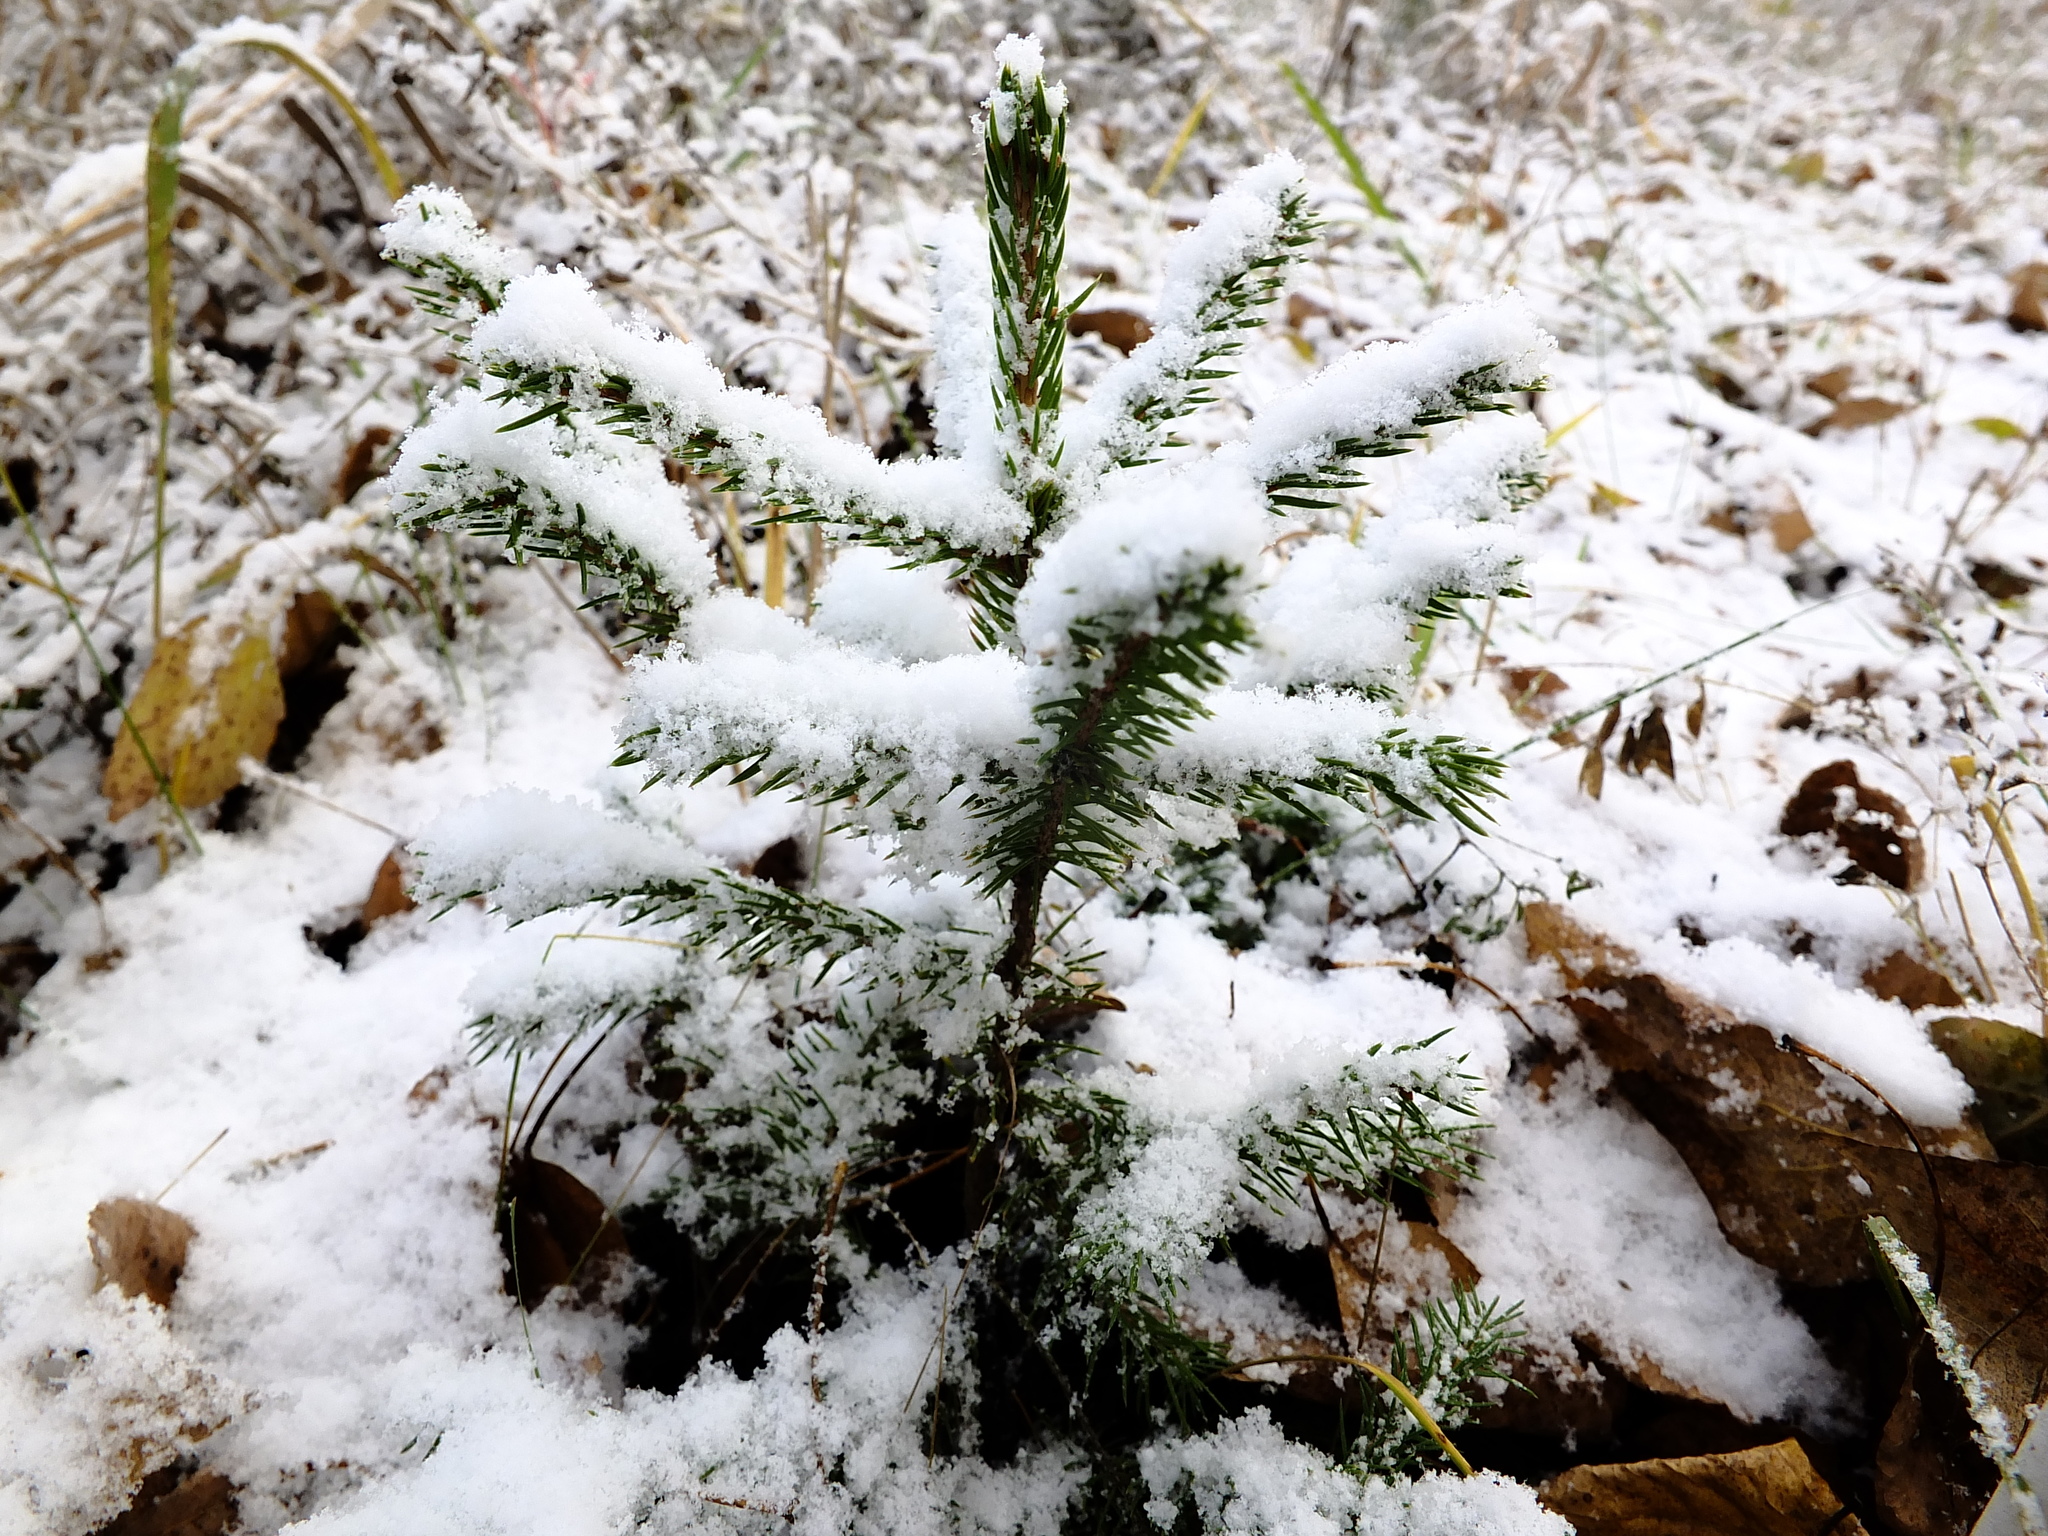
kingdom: Plantae
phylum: Tracheophyta
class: Pinopsida
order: Pinales
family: Pinaceae
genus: Picea
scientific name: Picea obovata
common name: Siberian spruce
